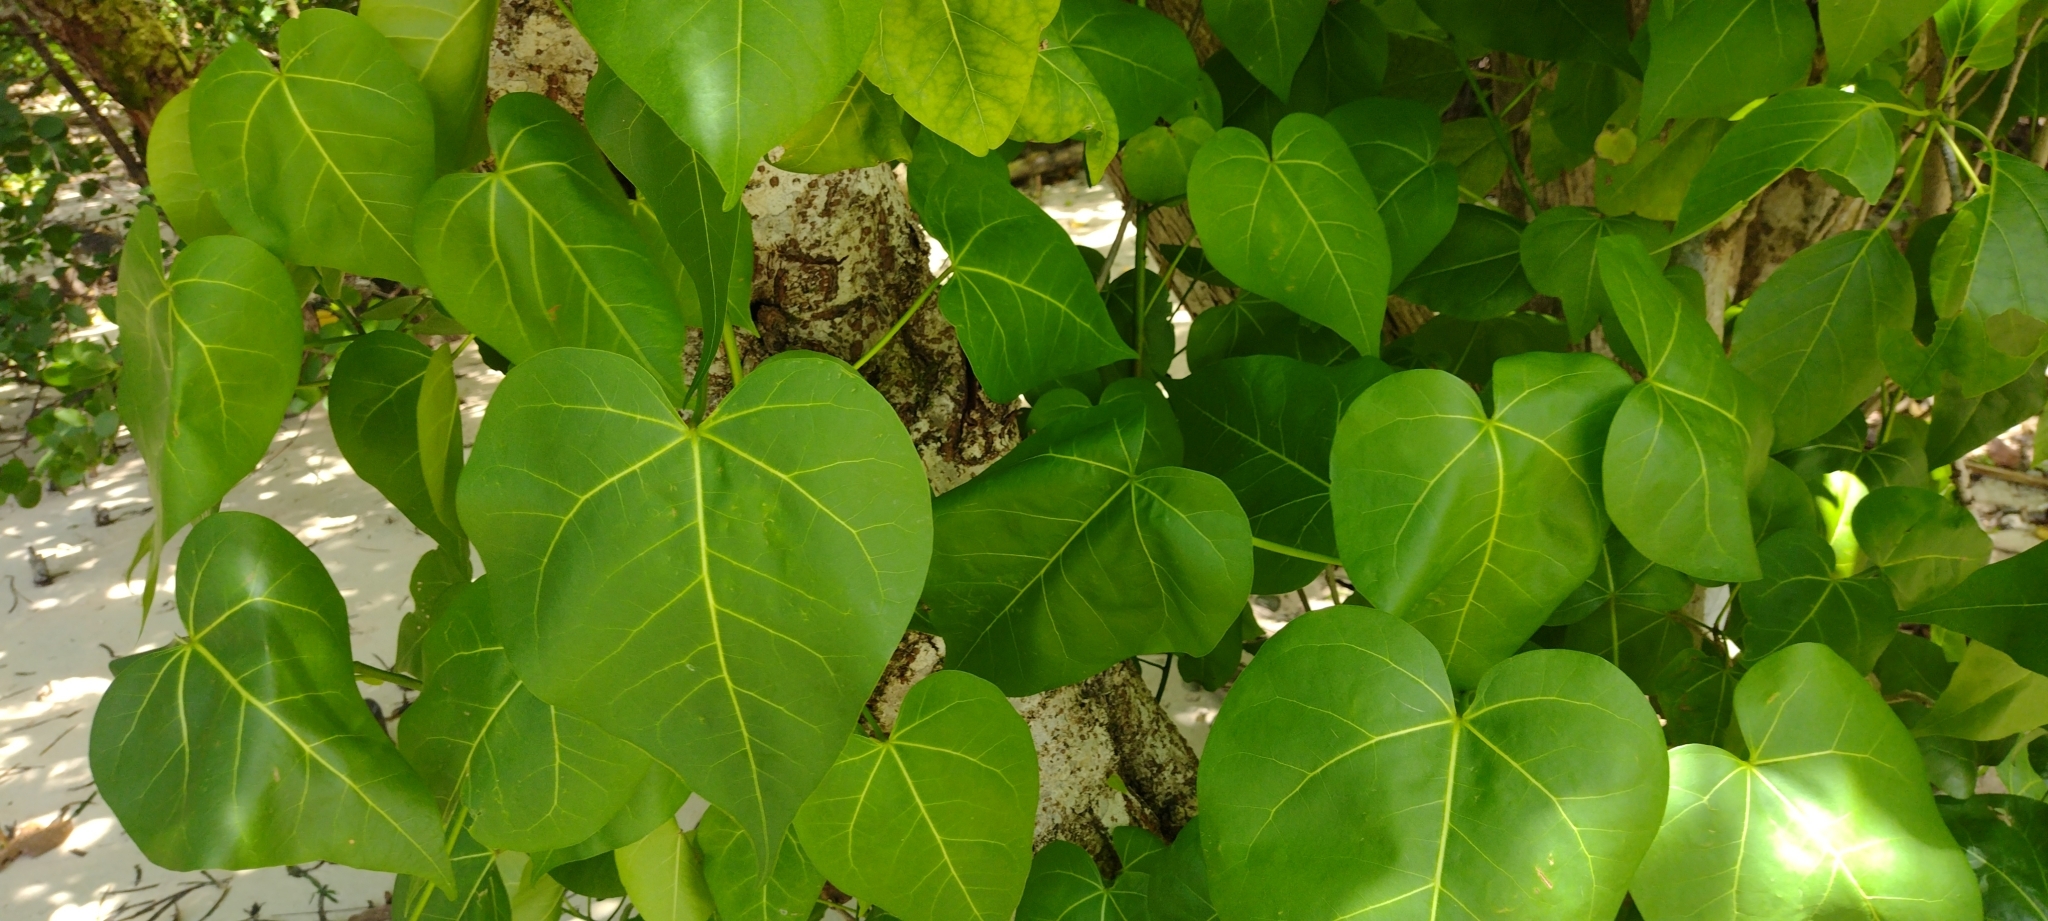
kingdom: Plantae
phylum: Tracheophyta
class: Magnoliopsida
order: Malvales
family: Malvaceae
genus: Thespesia
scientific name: Thespesia populnea
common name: Seaside mahoe
